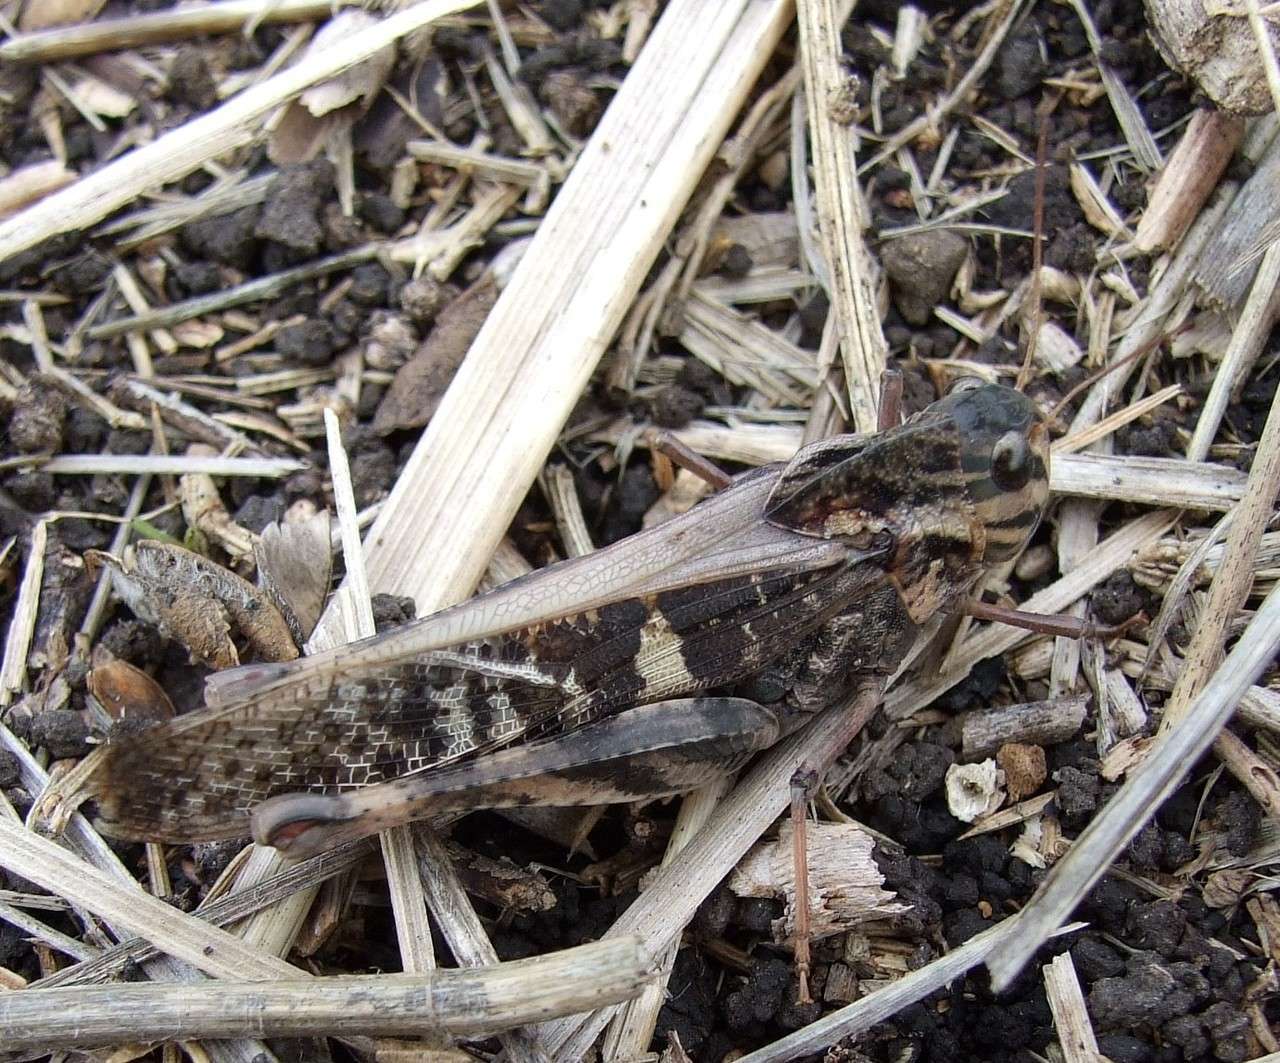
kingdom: Animalia
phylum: Arthropoda
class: Insecta
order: Orthoptera
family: Acrididae
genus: Gastrimargus
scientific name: Gastrimargus musicus
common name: Yellow-winged locust
